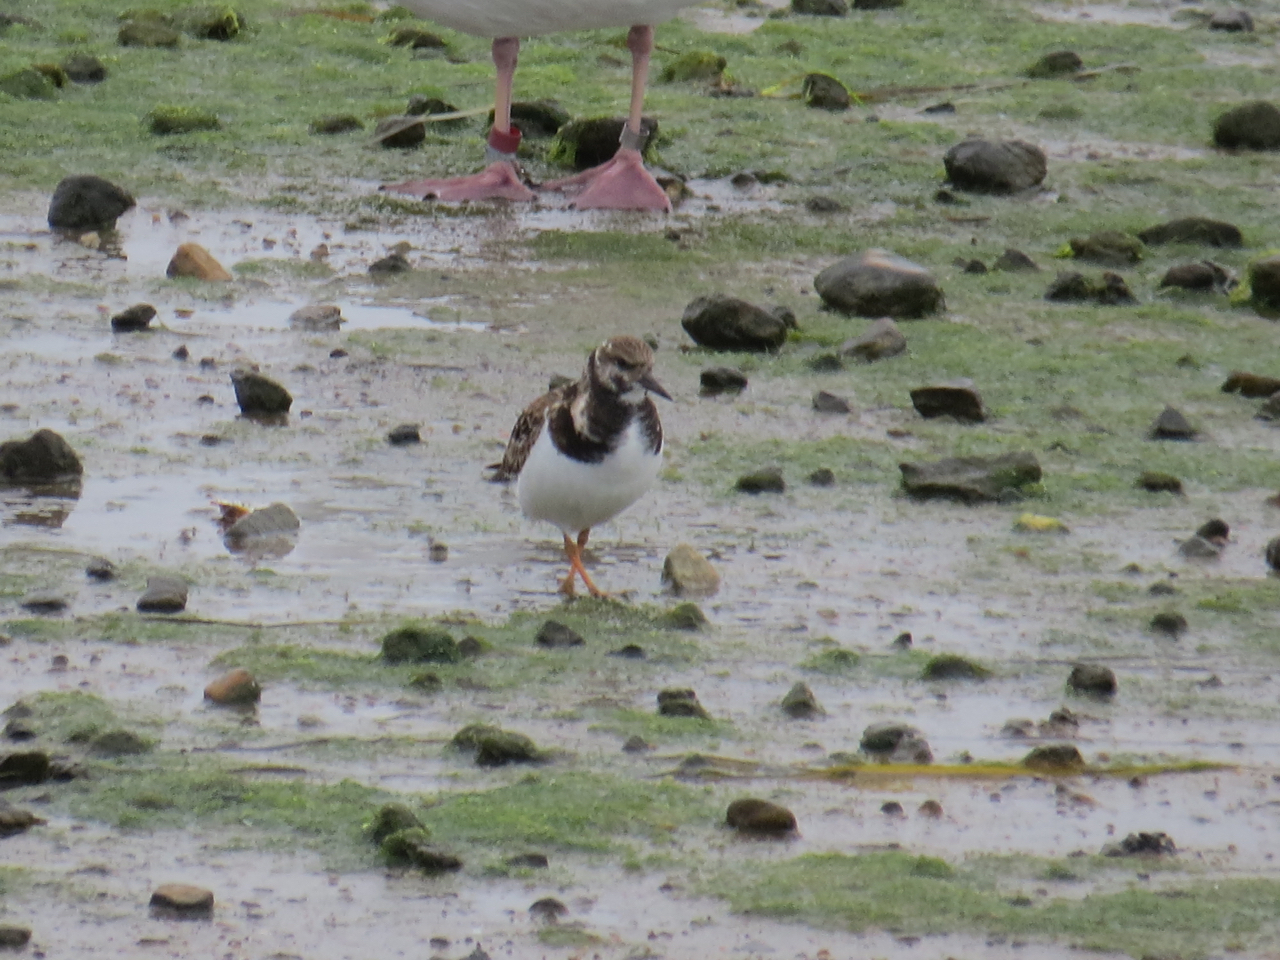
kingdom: Animalia
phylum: Chordata
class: Aves
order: Charadriiformes
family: Scolopacidae
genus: Arenaria
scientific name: Arenaria interpres
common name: Ruddy turnstone
